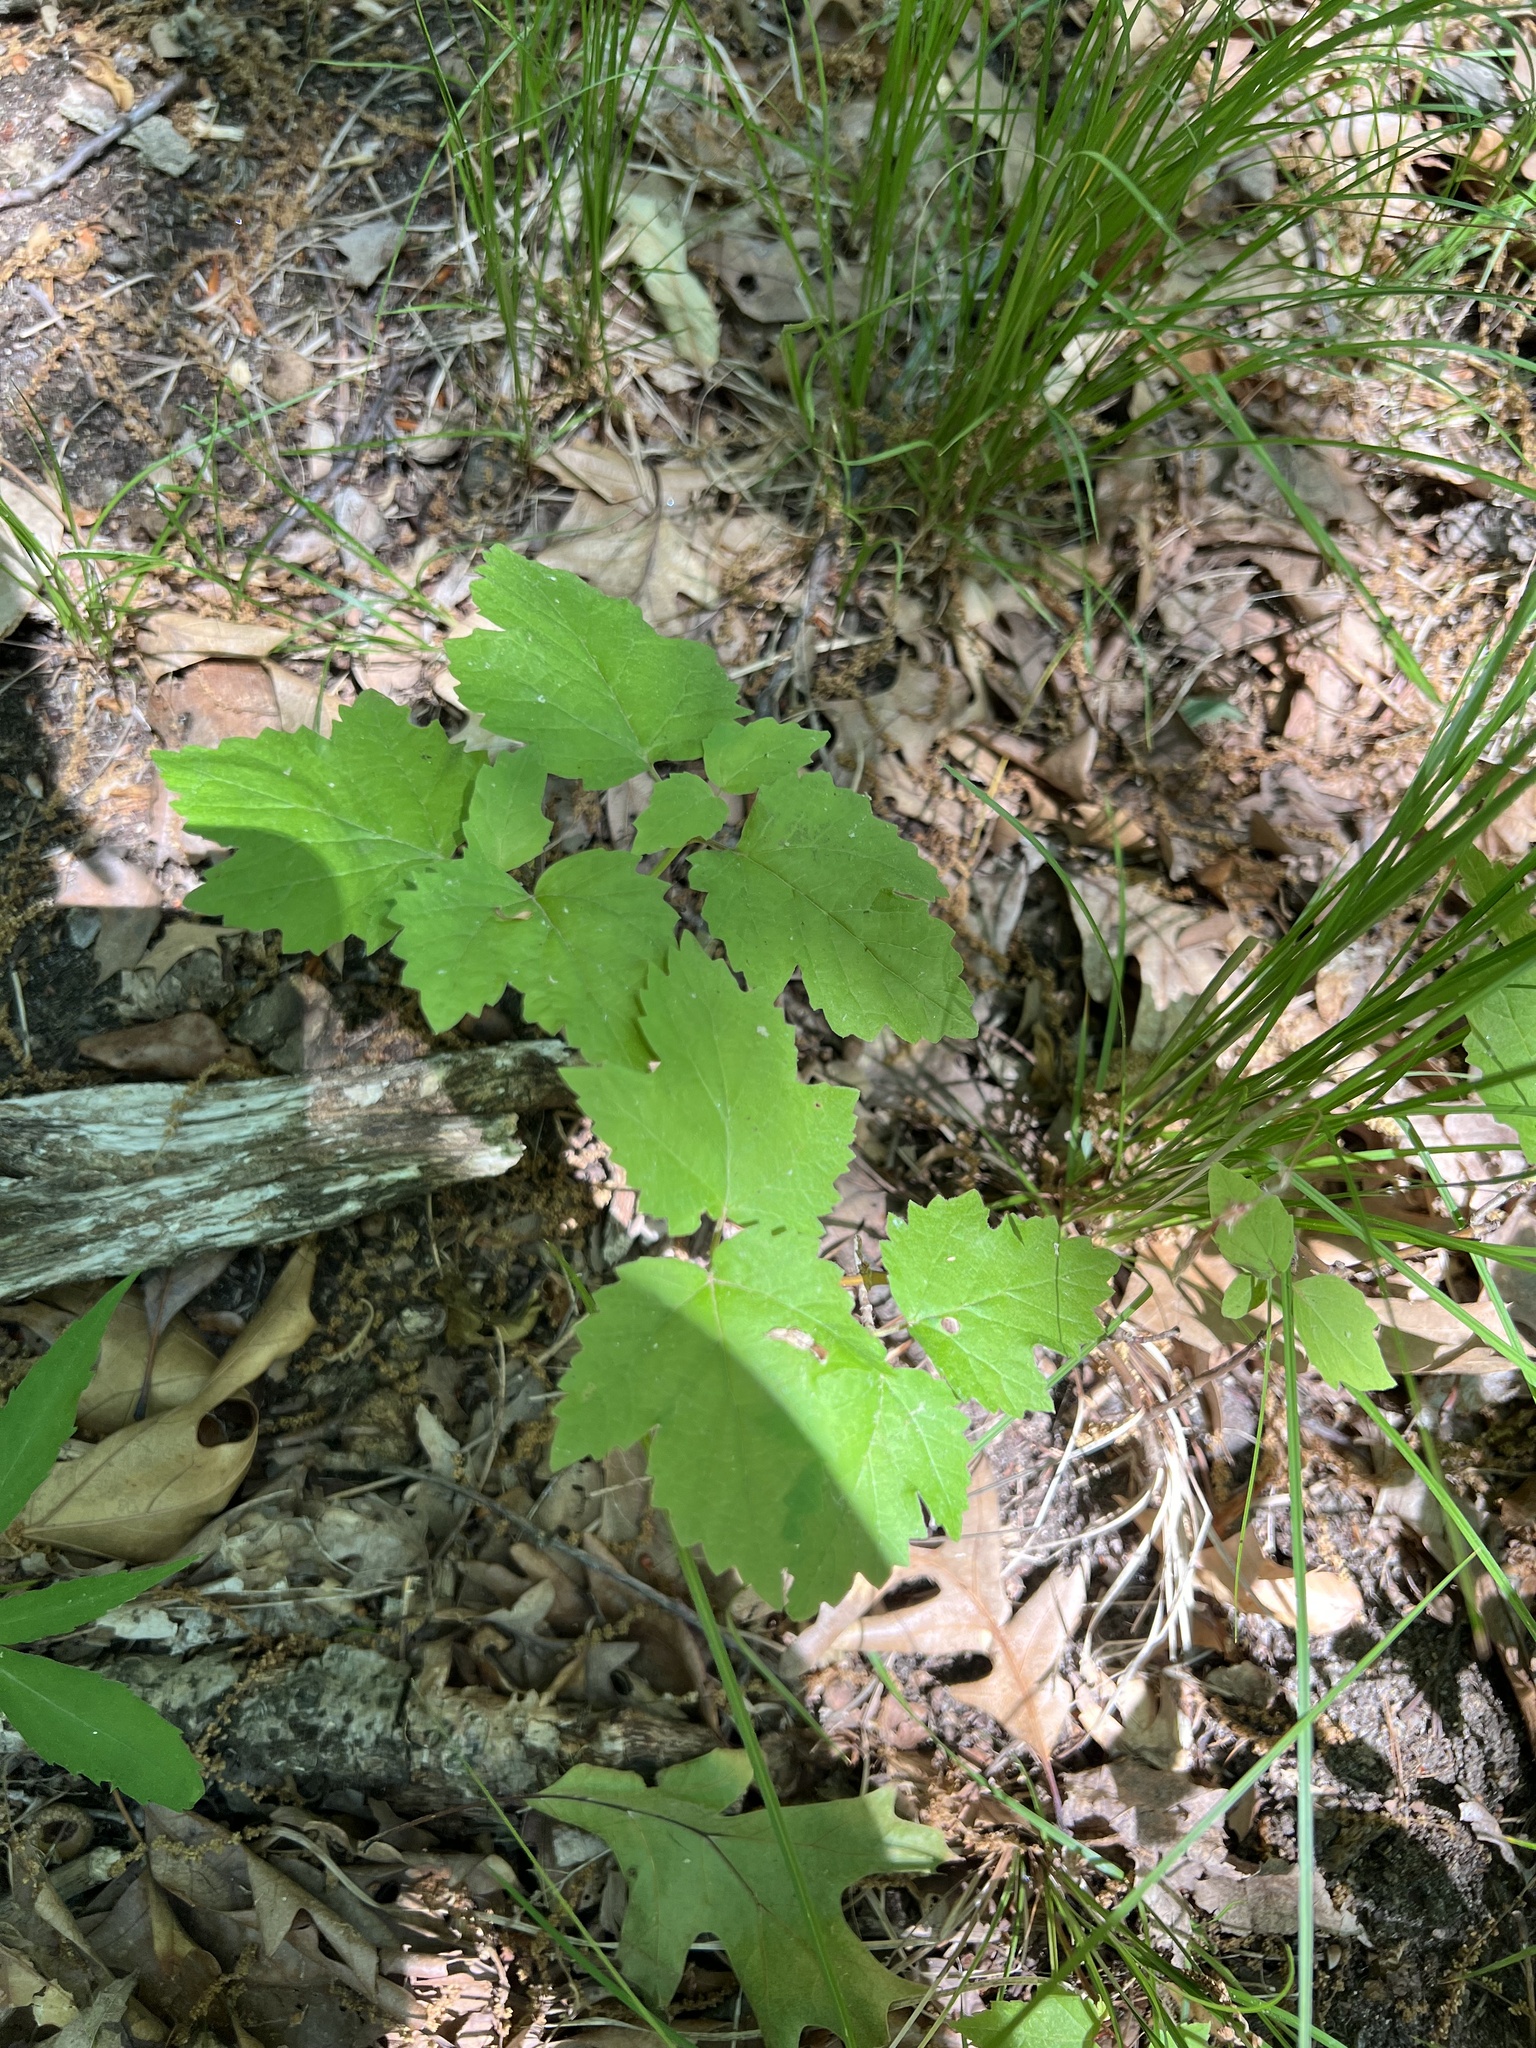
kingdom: Plantae
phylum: Tracheophyta
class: Magnoliopsida
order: Dipsacales
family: Viburnaceae
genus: Viburnum
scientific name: Viburnum acerifolium
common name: Dockmackie
